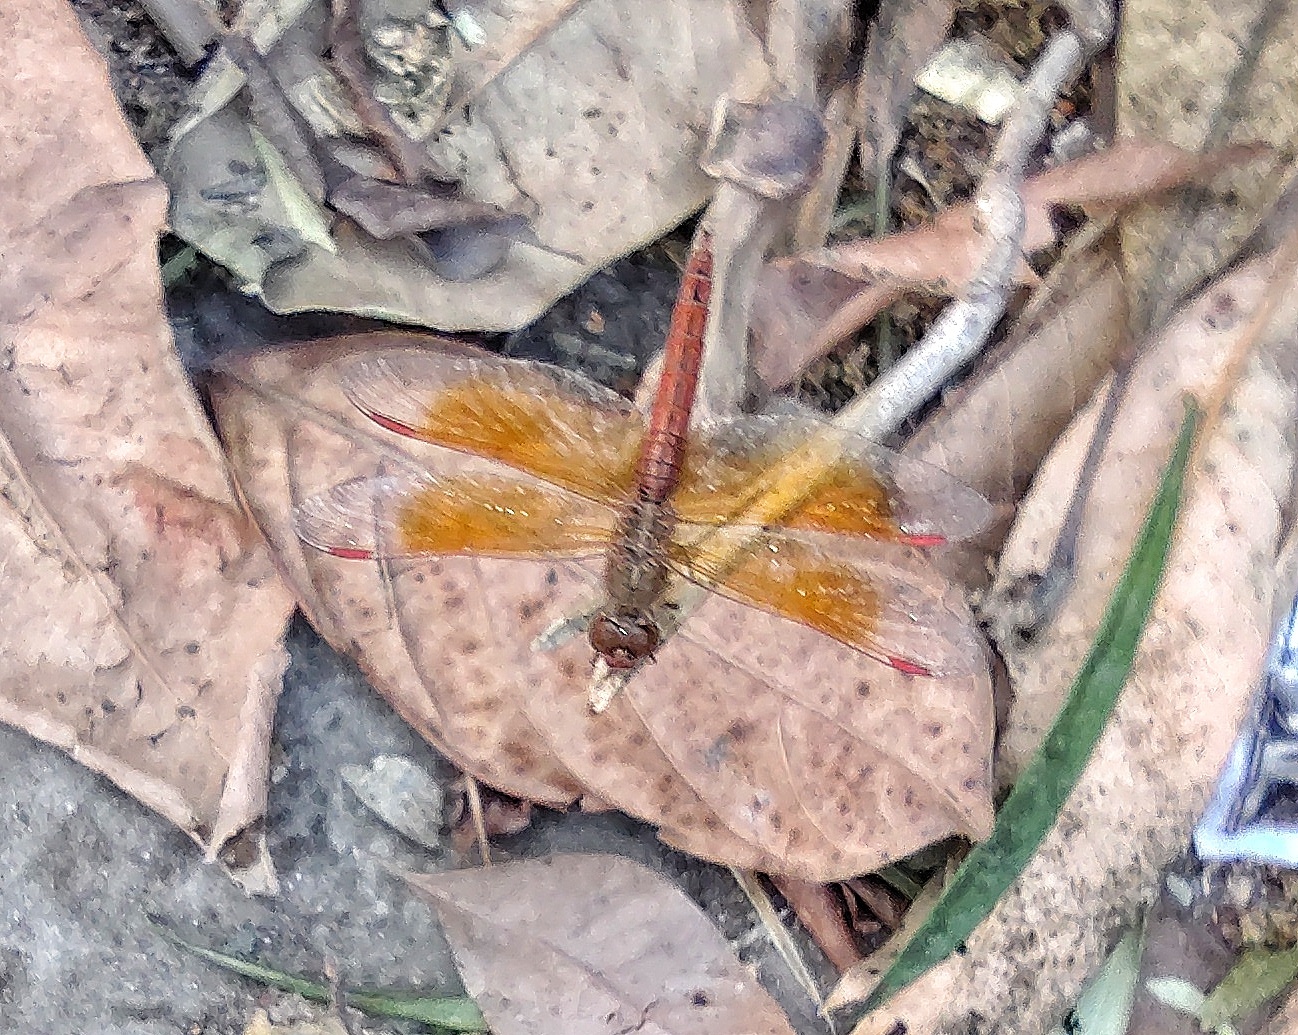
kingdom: Animalia
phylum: Arthropoda
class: Insecta
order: Odonata
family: Libellulidae
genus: Brachythemis
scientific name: Brachythemis contaminata
